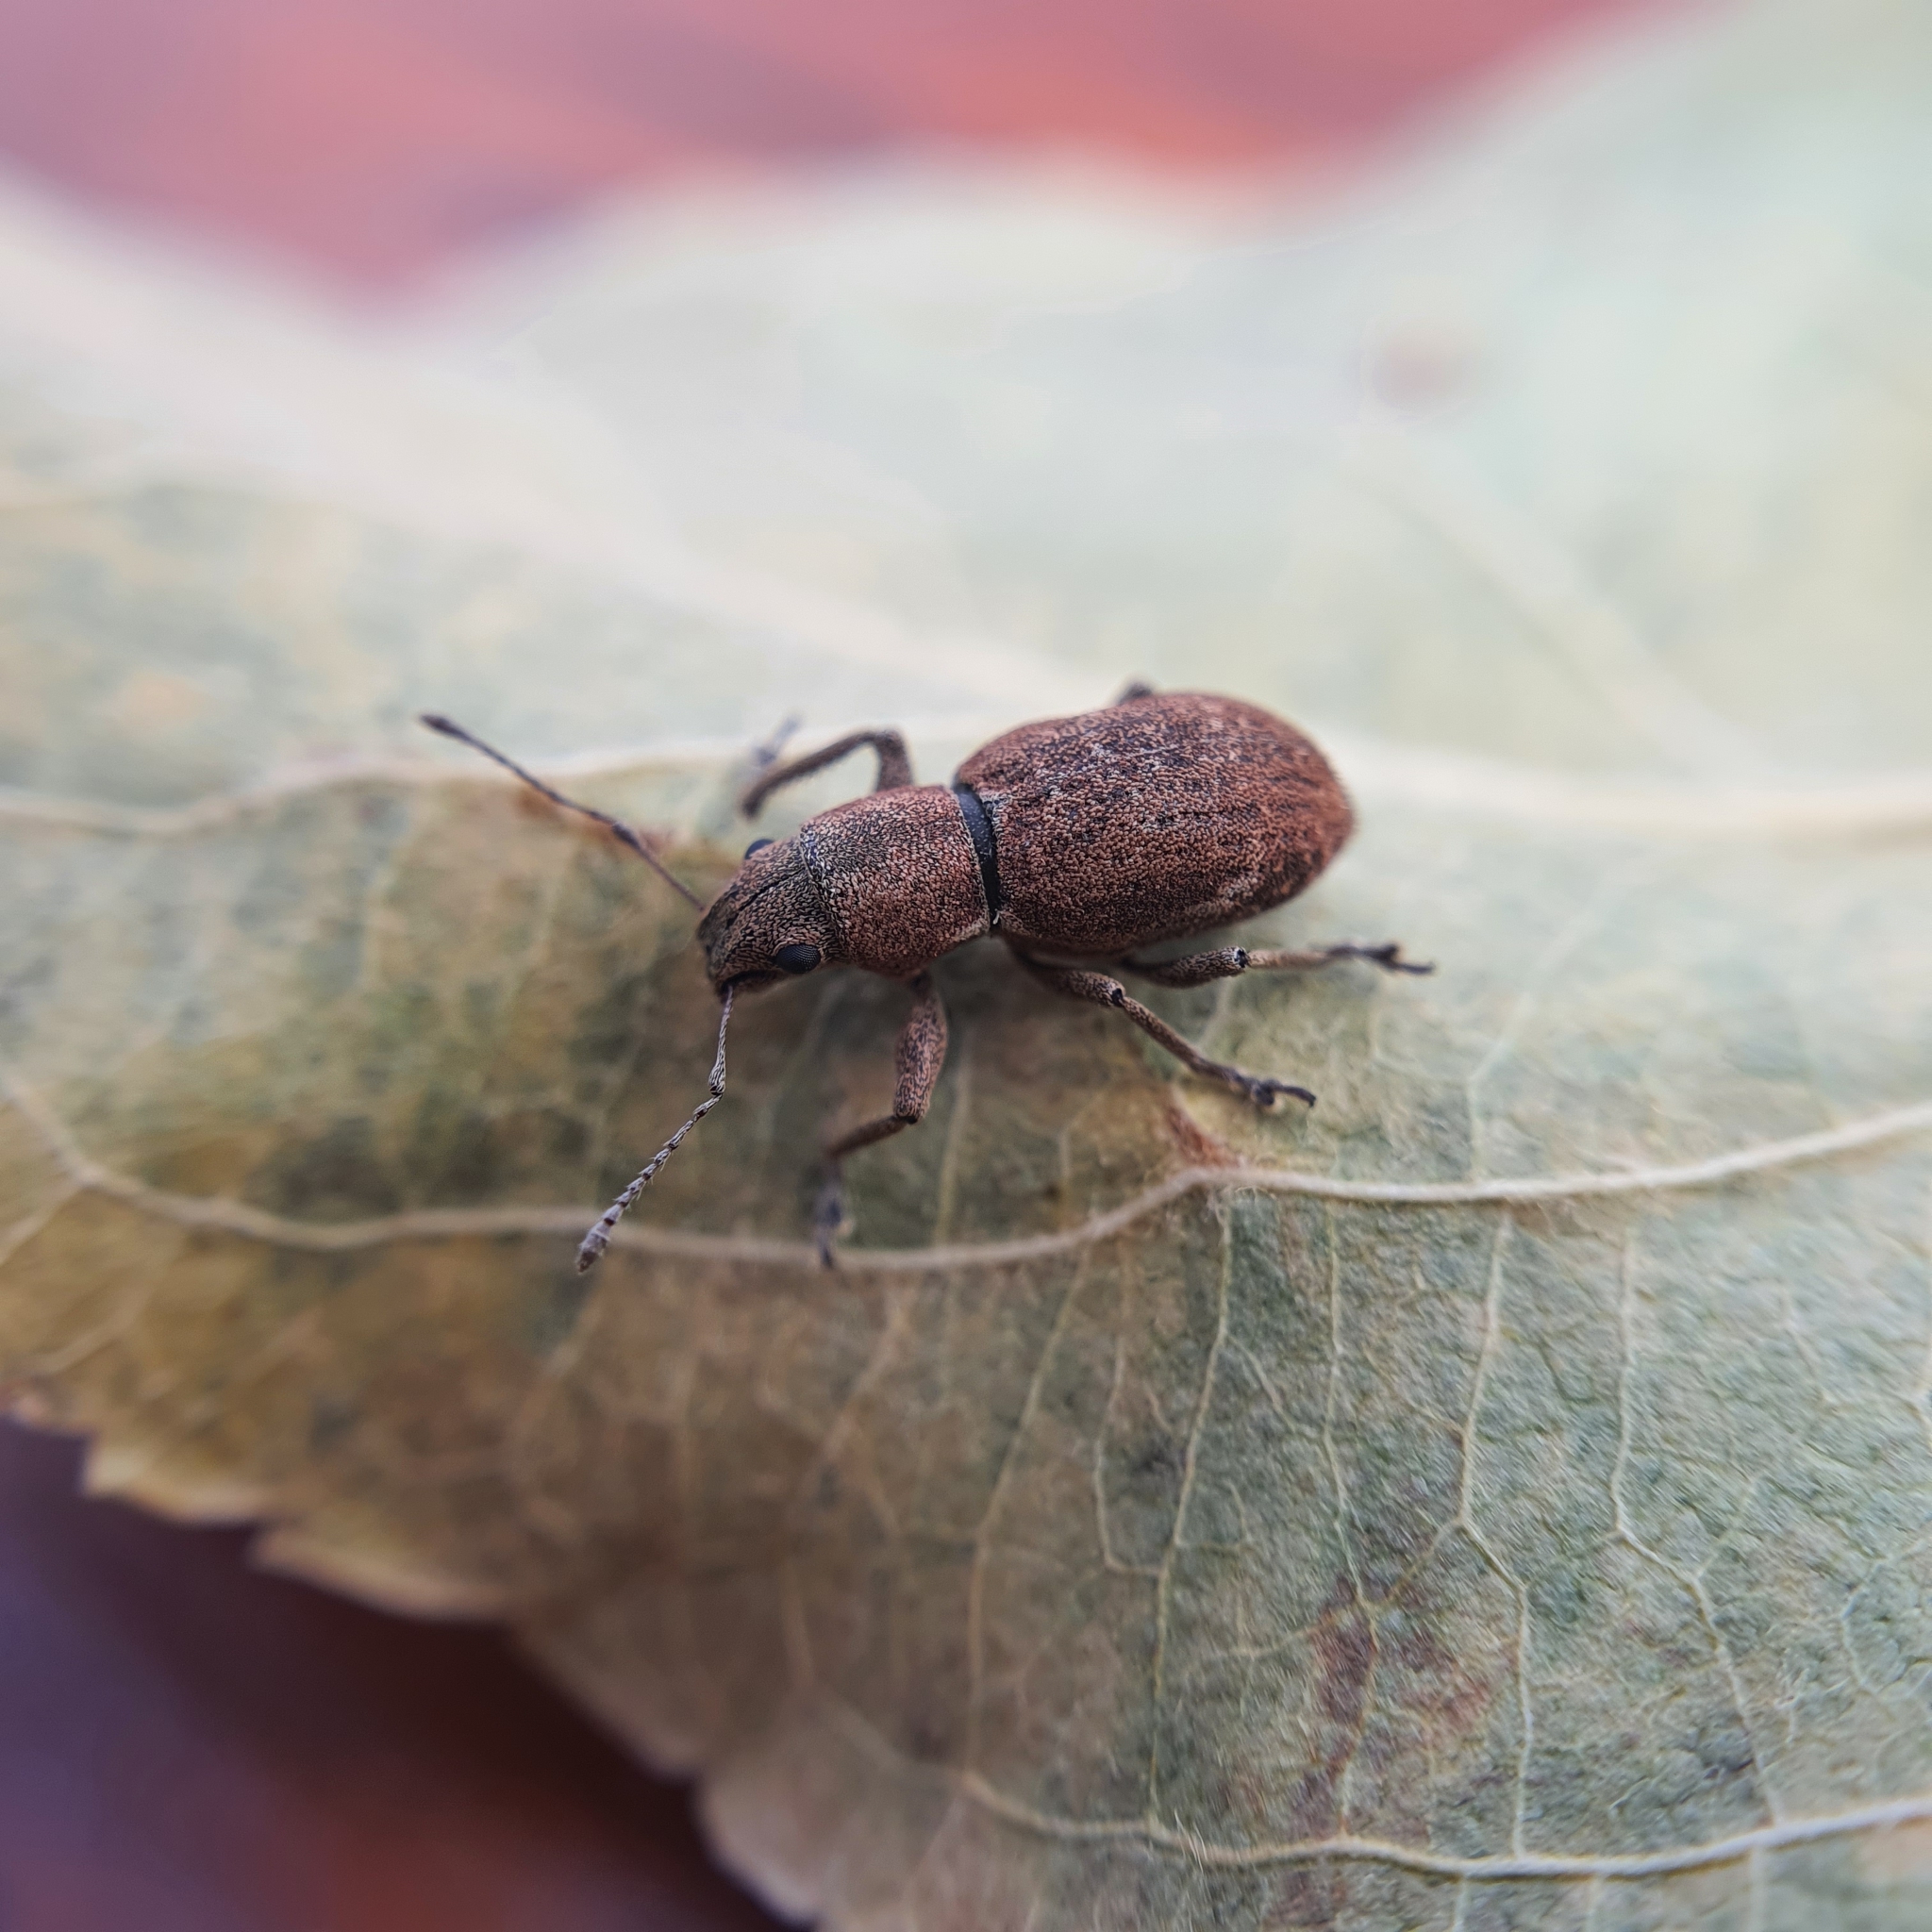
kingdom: Animalia
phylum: Arthropoda
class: Insecta
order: Coleoptera
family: Curculionidae
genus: Naupactus
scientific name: Naupactus cervinus
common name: Fuller rose beetle
